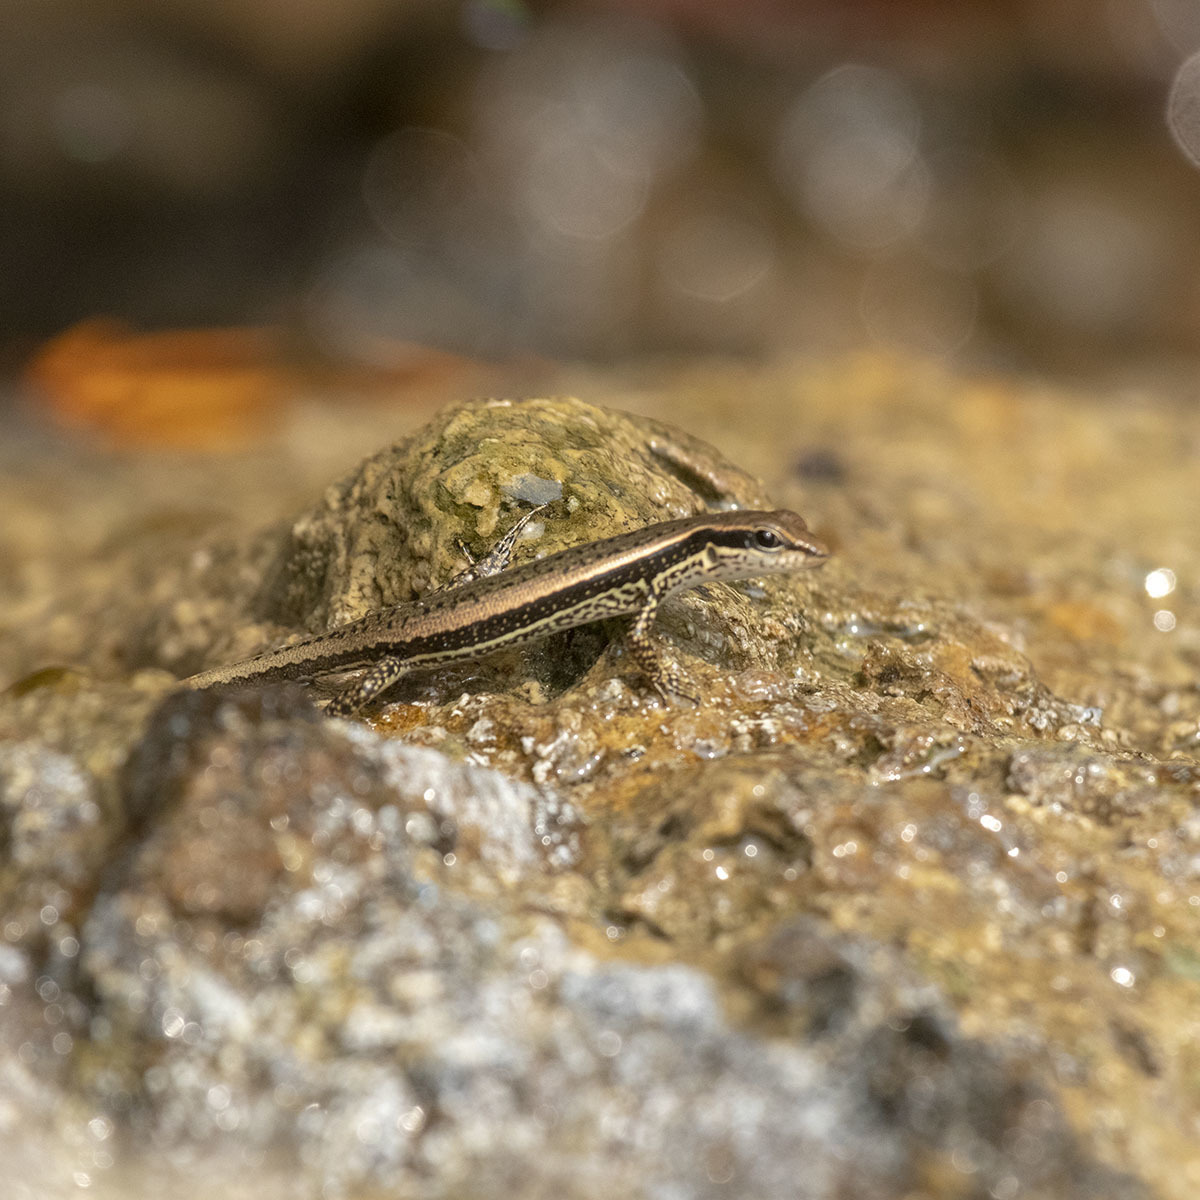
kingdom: Animalia
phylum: Chordata
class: Squamata
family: Scincidae
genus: Sphenomorphus
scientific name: Sphenomorphus maculatus
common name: Maculated forest skink
